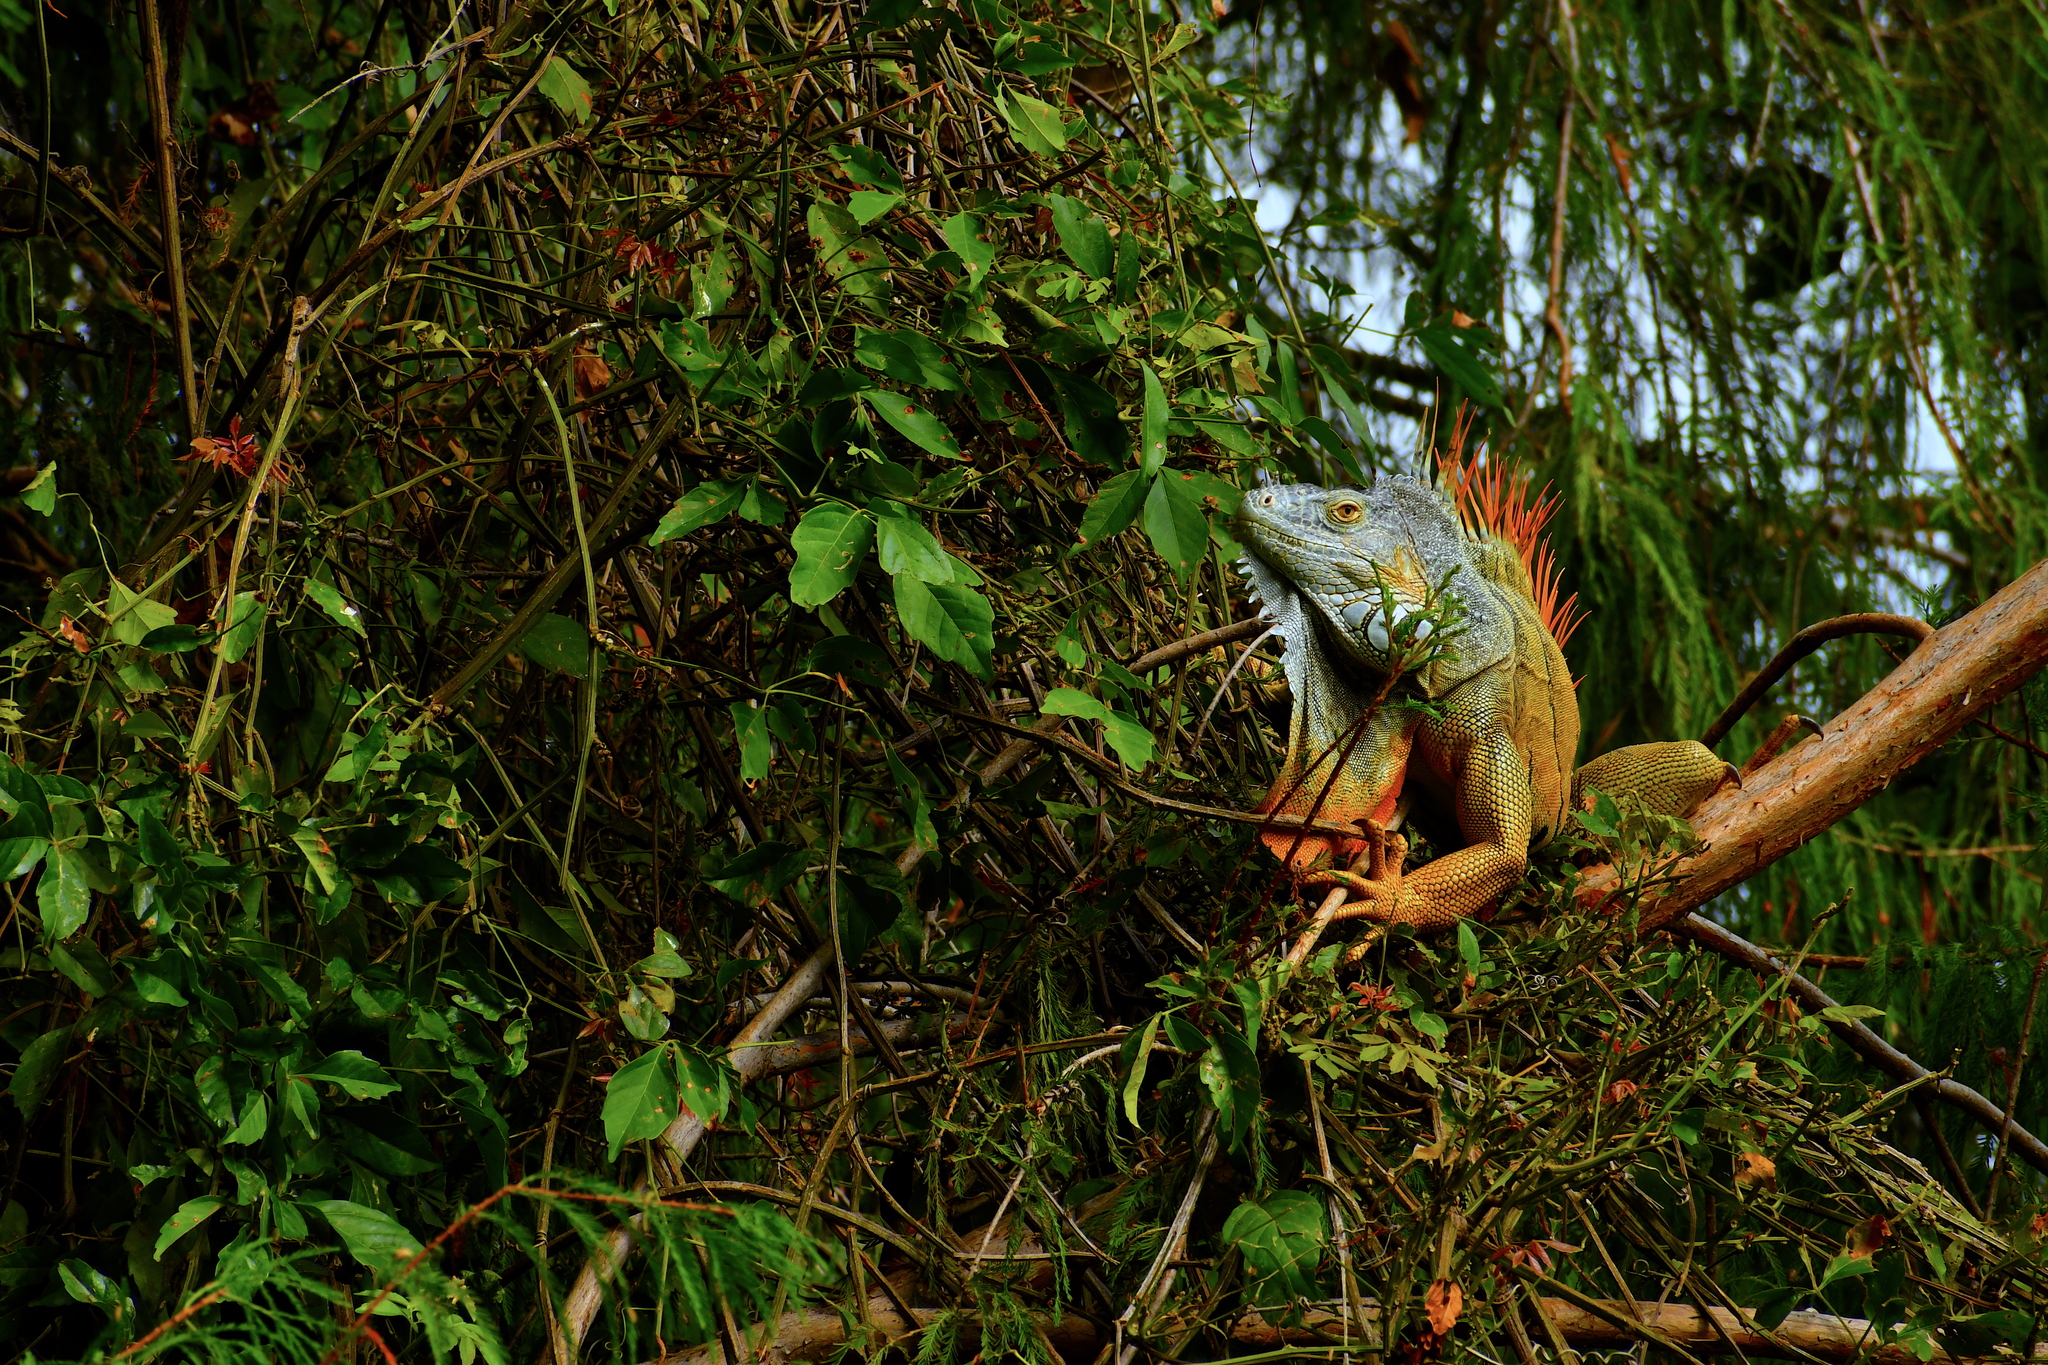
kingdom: Animalia
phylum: Chordata
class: Squamata
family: Iguanidae
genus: Iguana
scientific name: Iguana iguana
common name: Green iguana
